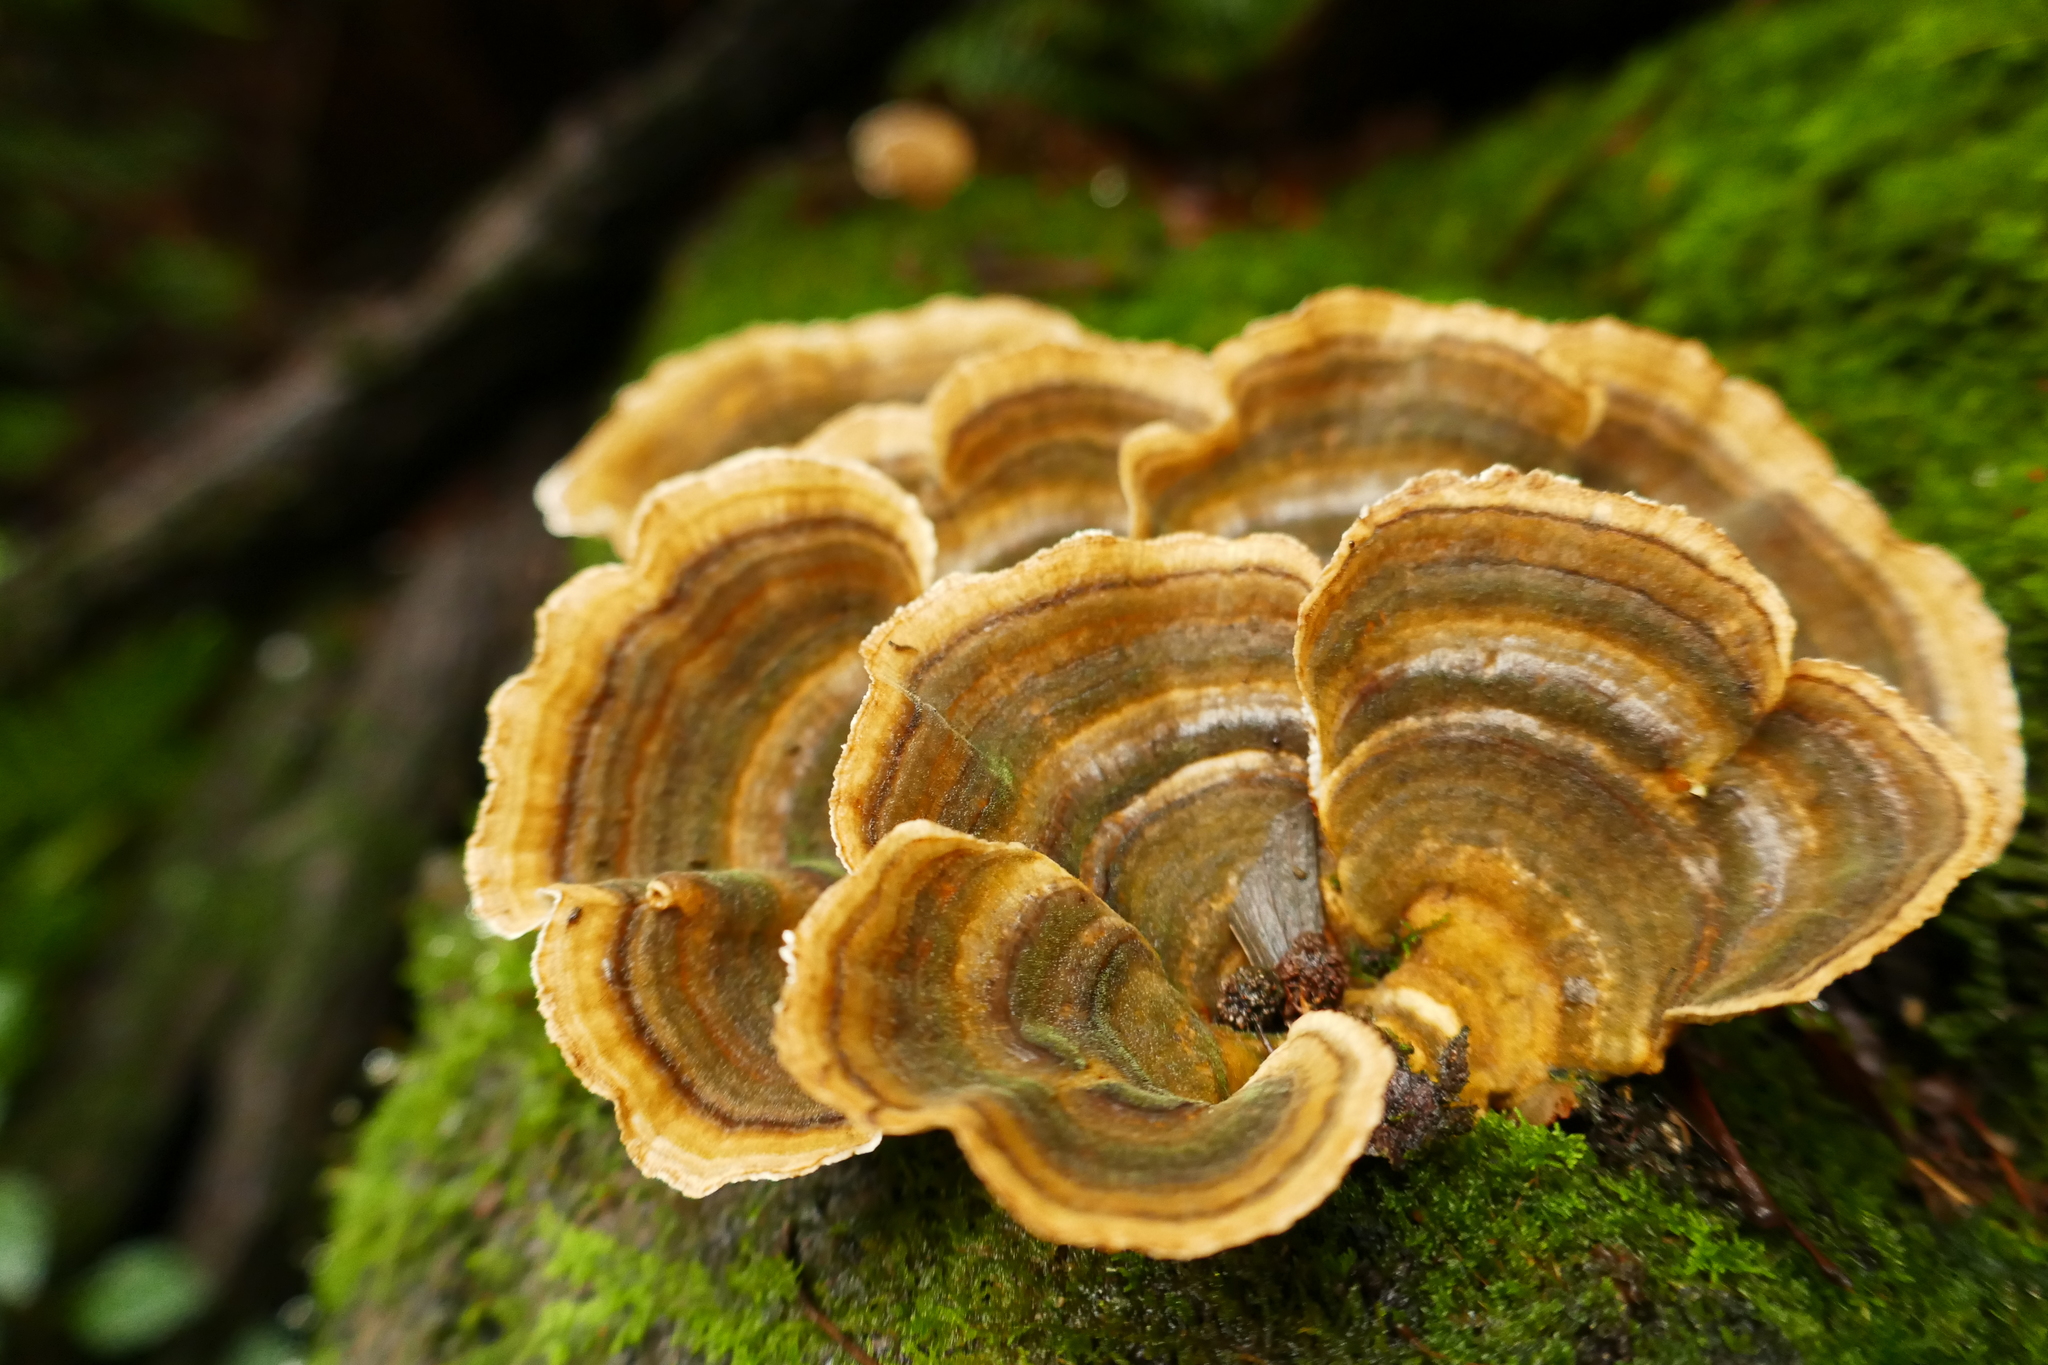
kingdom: Fungi
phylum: Basidiomycota
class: Agaricomycetes
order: Russulales
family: Stereaceae
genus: Stereum
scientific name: Stereum versicolor
